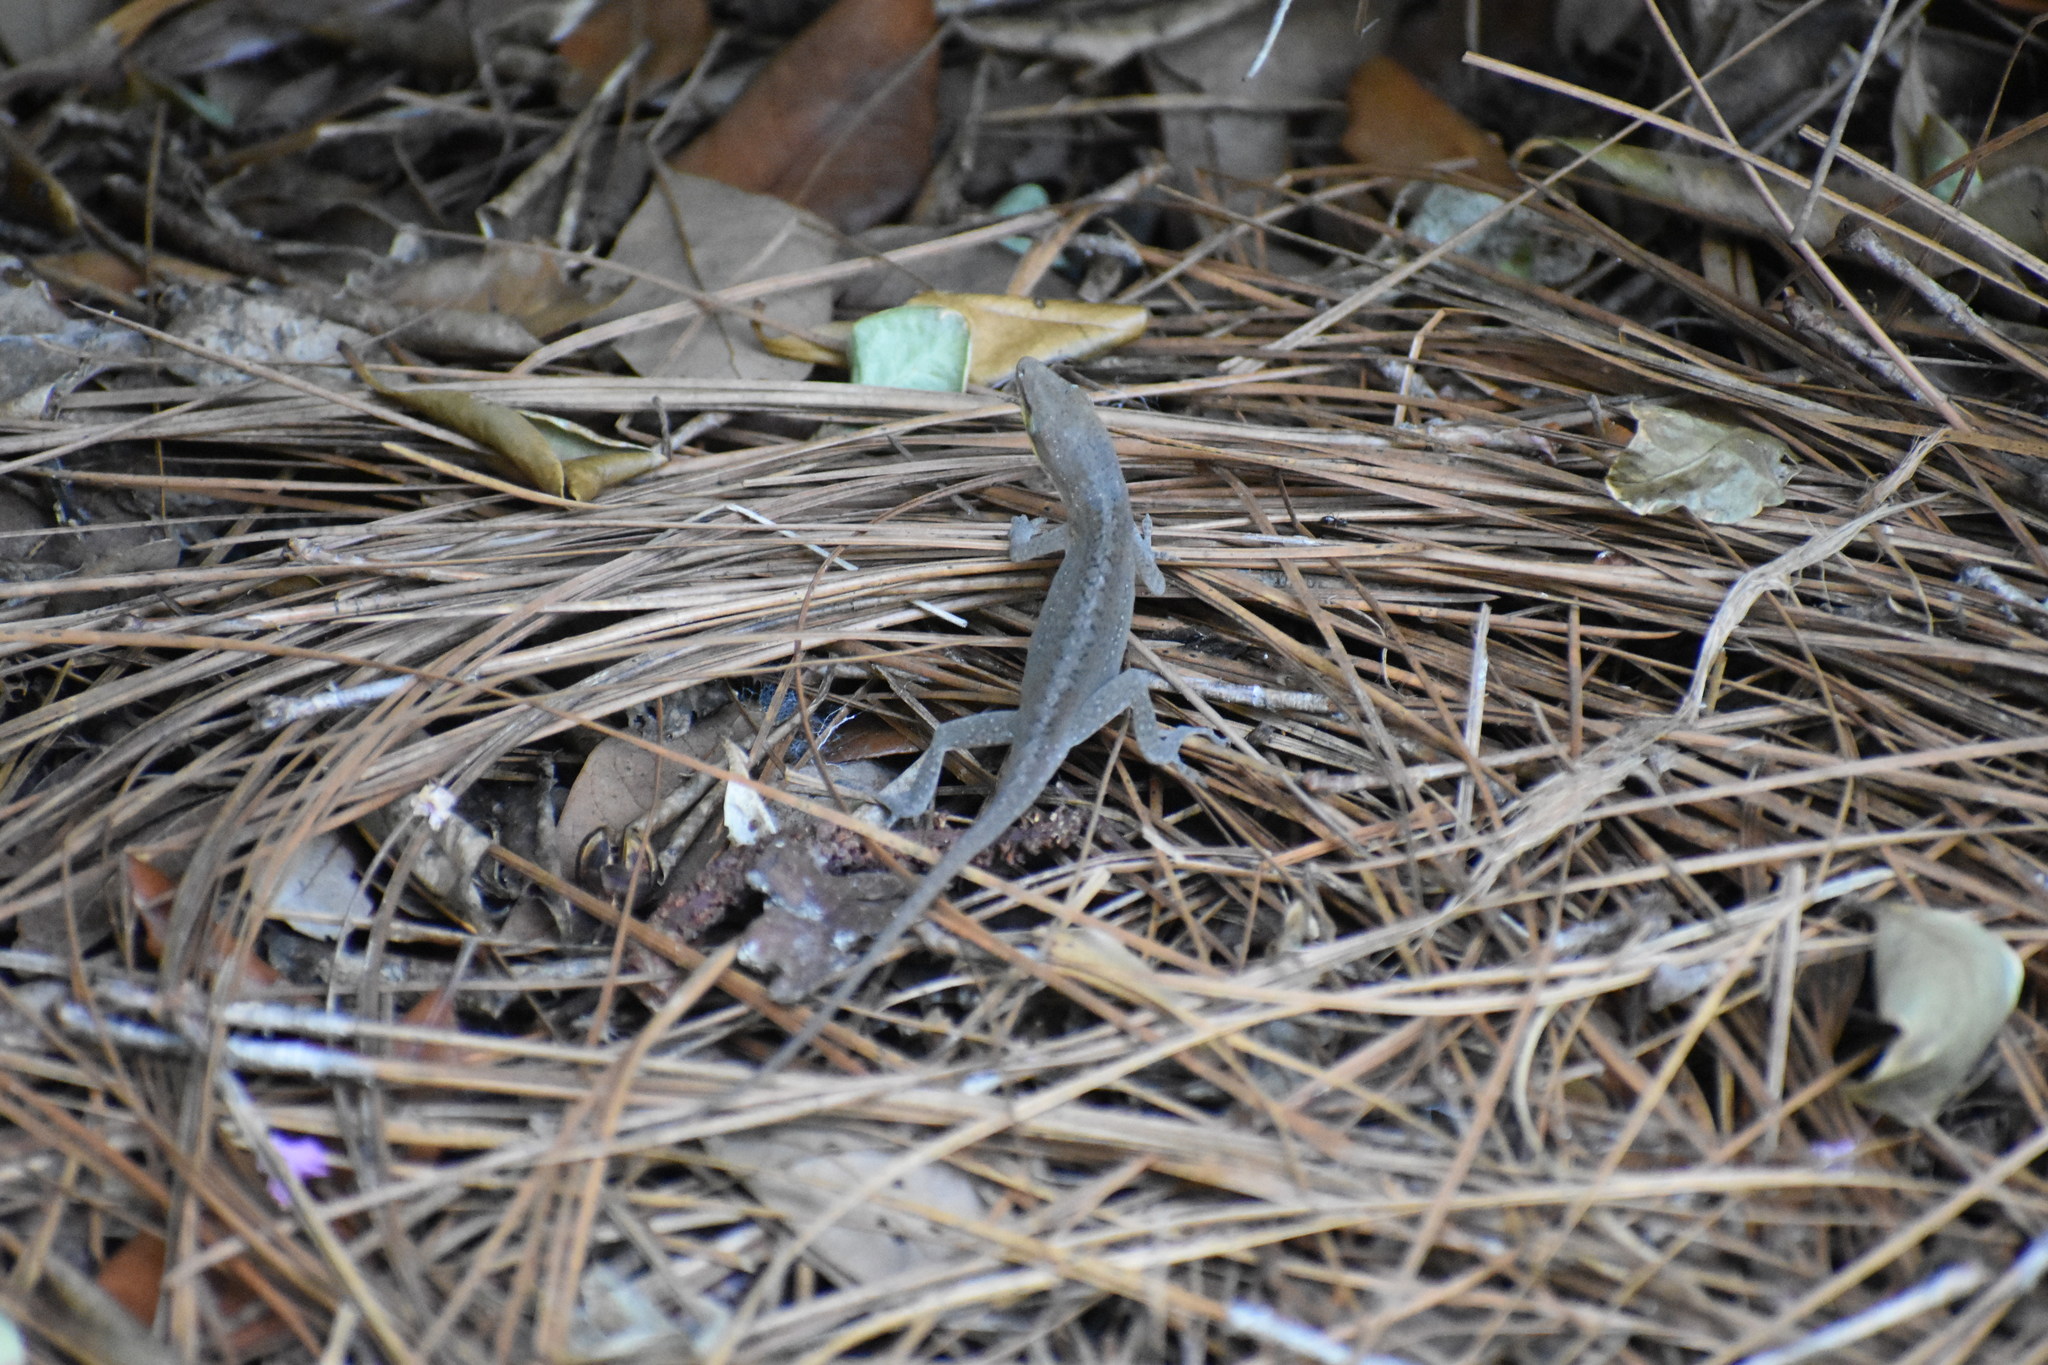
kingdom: Animalia
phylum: Chordata
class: Squamata
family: Dactyloidae
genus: Anolis
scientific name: Anolis carolinensis
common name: Green anole
